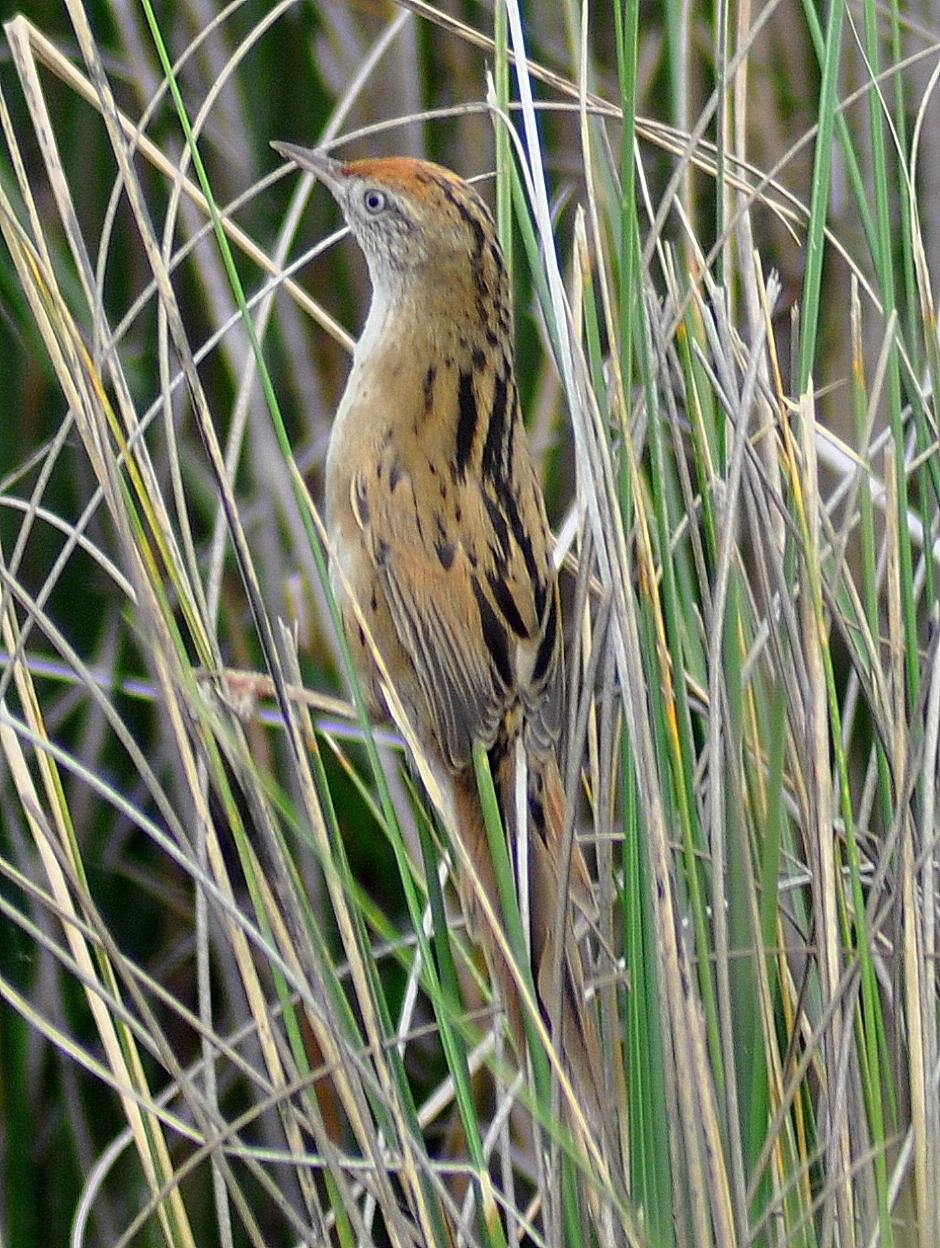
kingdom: Animalia
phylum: Chordata
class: Aves
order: Passeriformes
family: Furnariidae
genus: Spartonoica
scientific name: Spartonoica maluroides
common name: Bay-capped wren-spinetail
